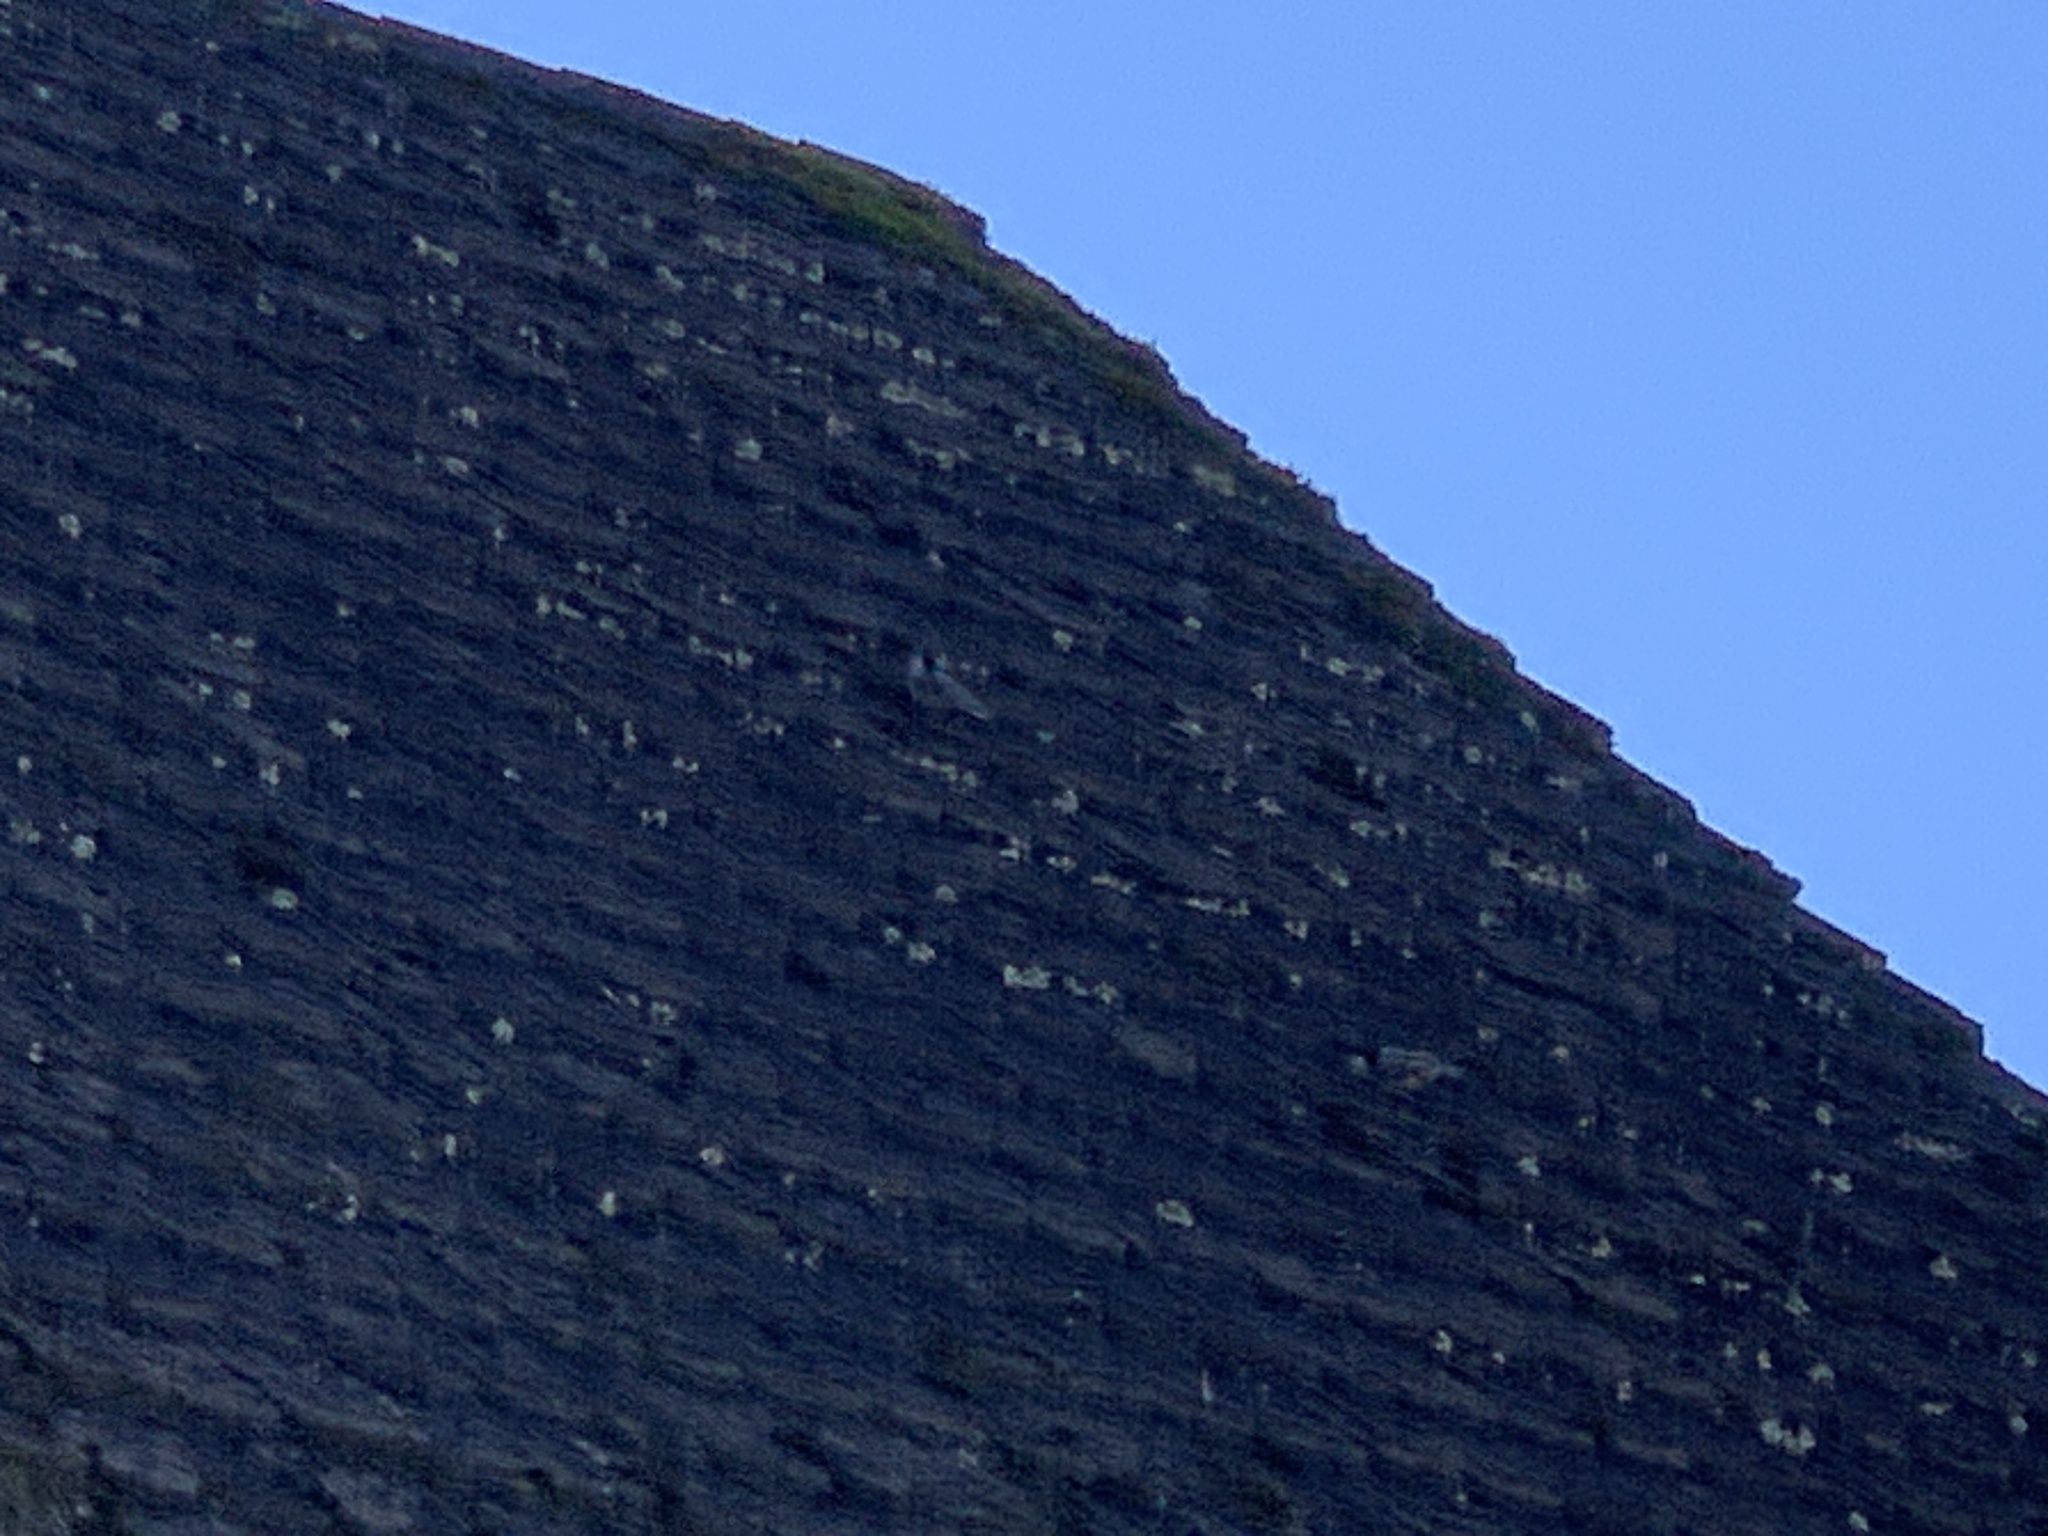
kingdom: Animalia
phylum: Chordata
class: Aves
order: Passeriformes
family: Sittidae
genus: Sitta
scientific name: Sitta carolinensis
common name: White-breasted nuthatch
